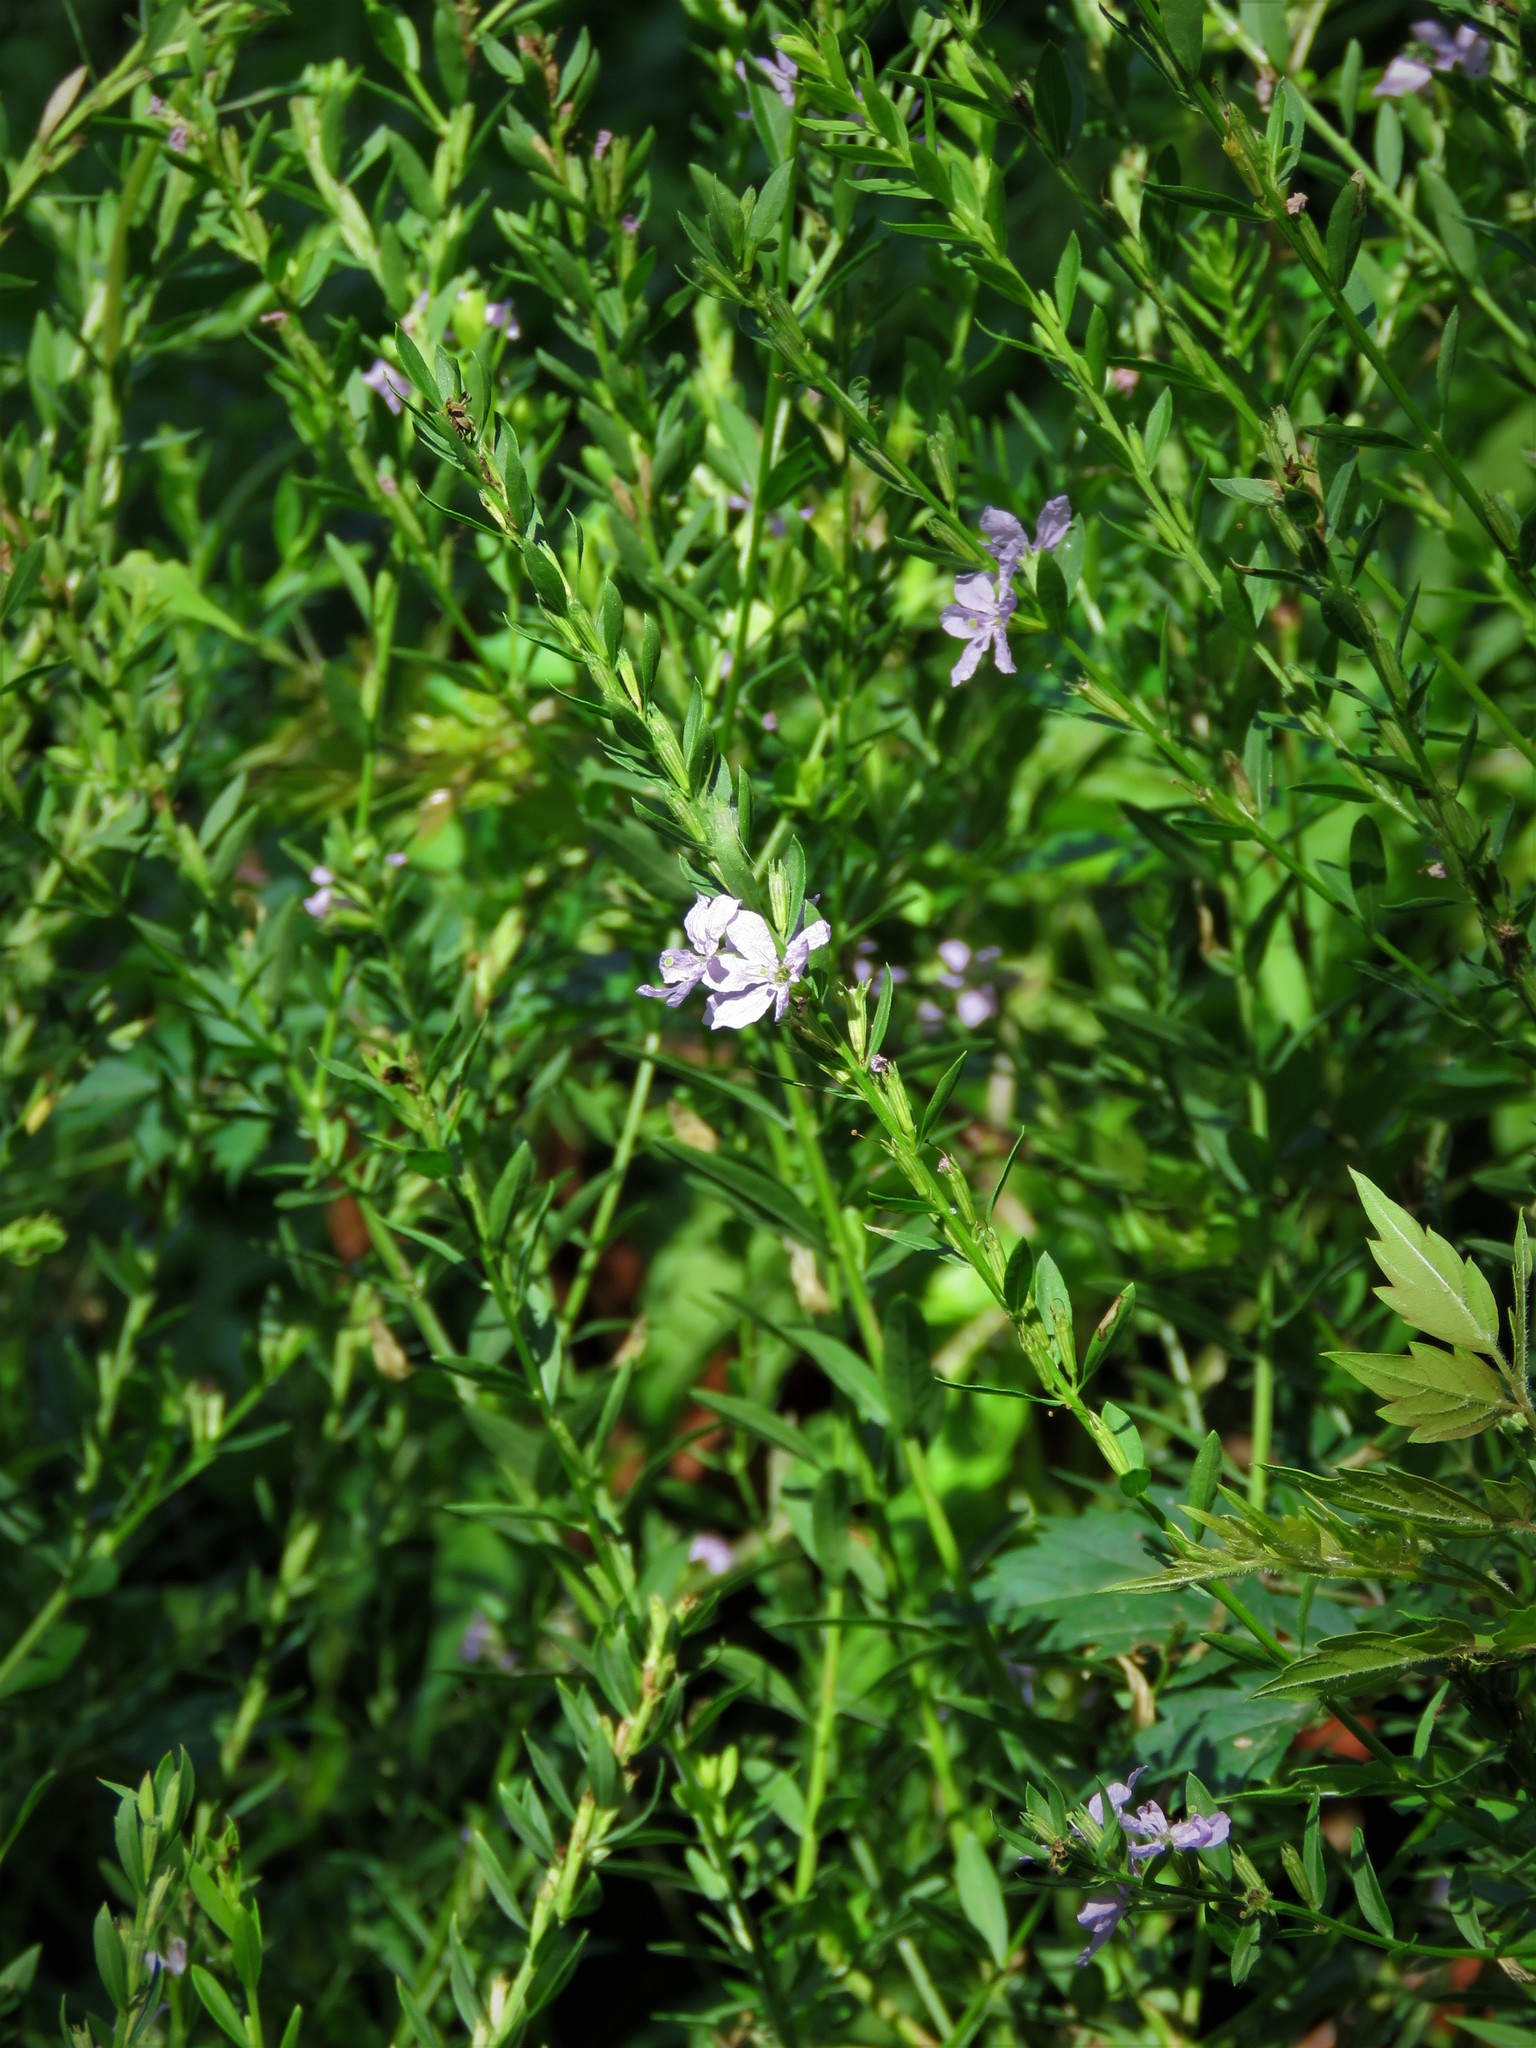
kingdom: Plantae
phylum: Tracheophyta
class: Magnoliopsida
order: Myrtales
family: Lythraceae
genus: Lythrum
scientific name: Lythrum alatum
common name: Winged loosestrife
